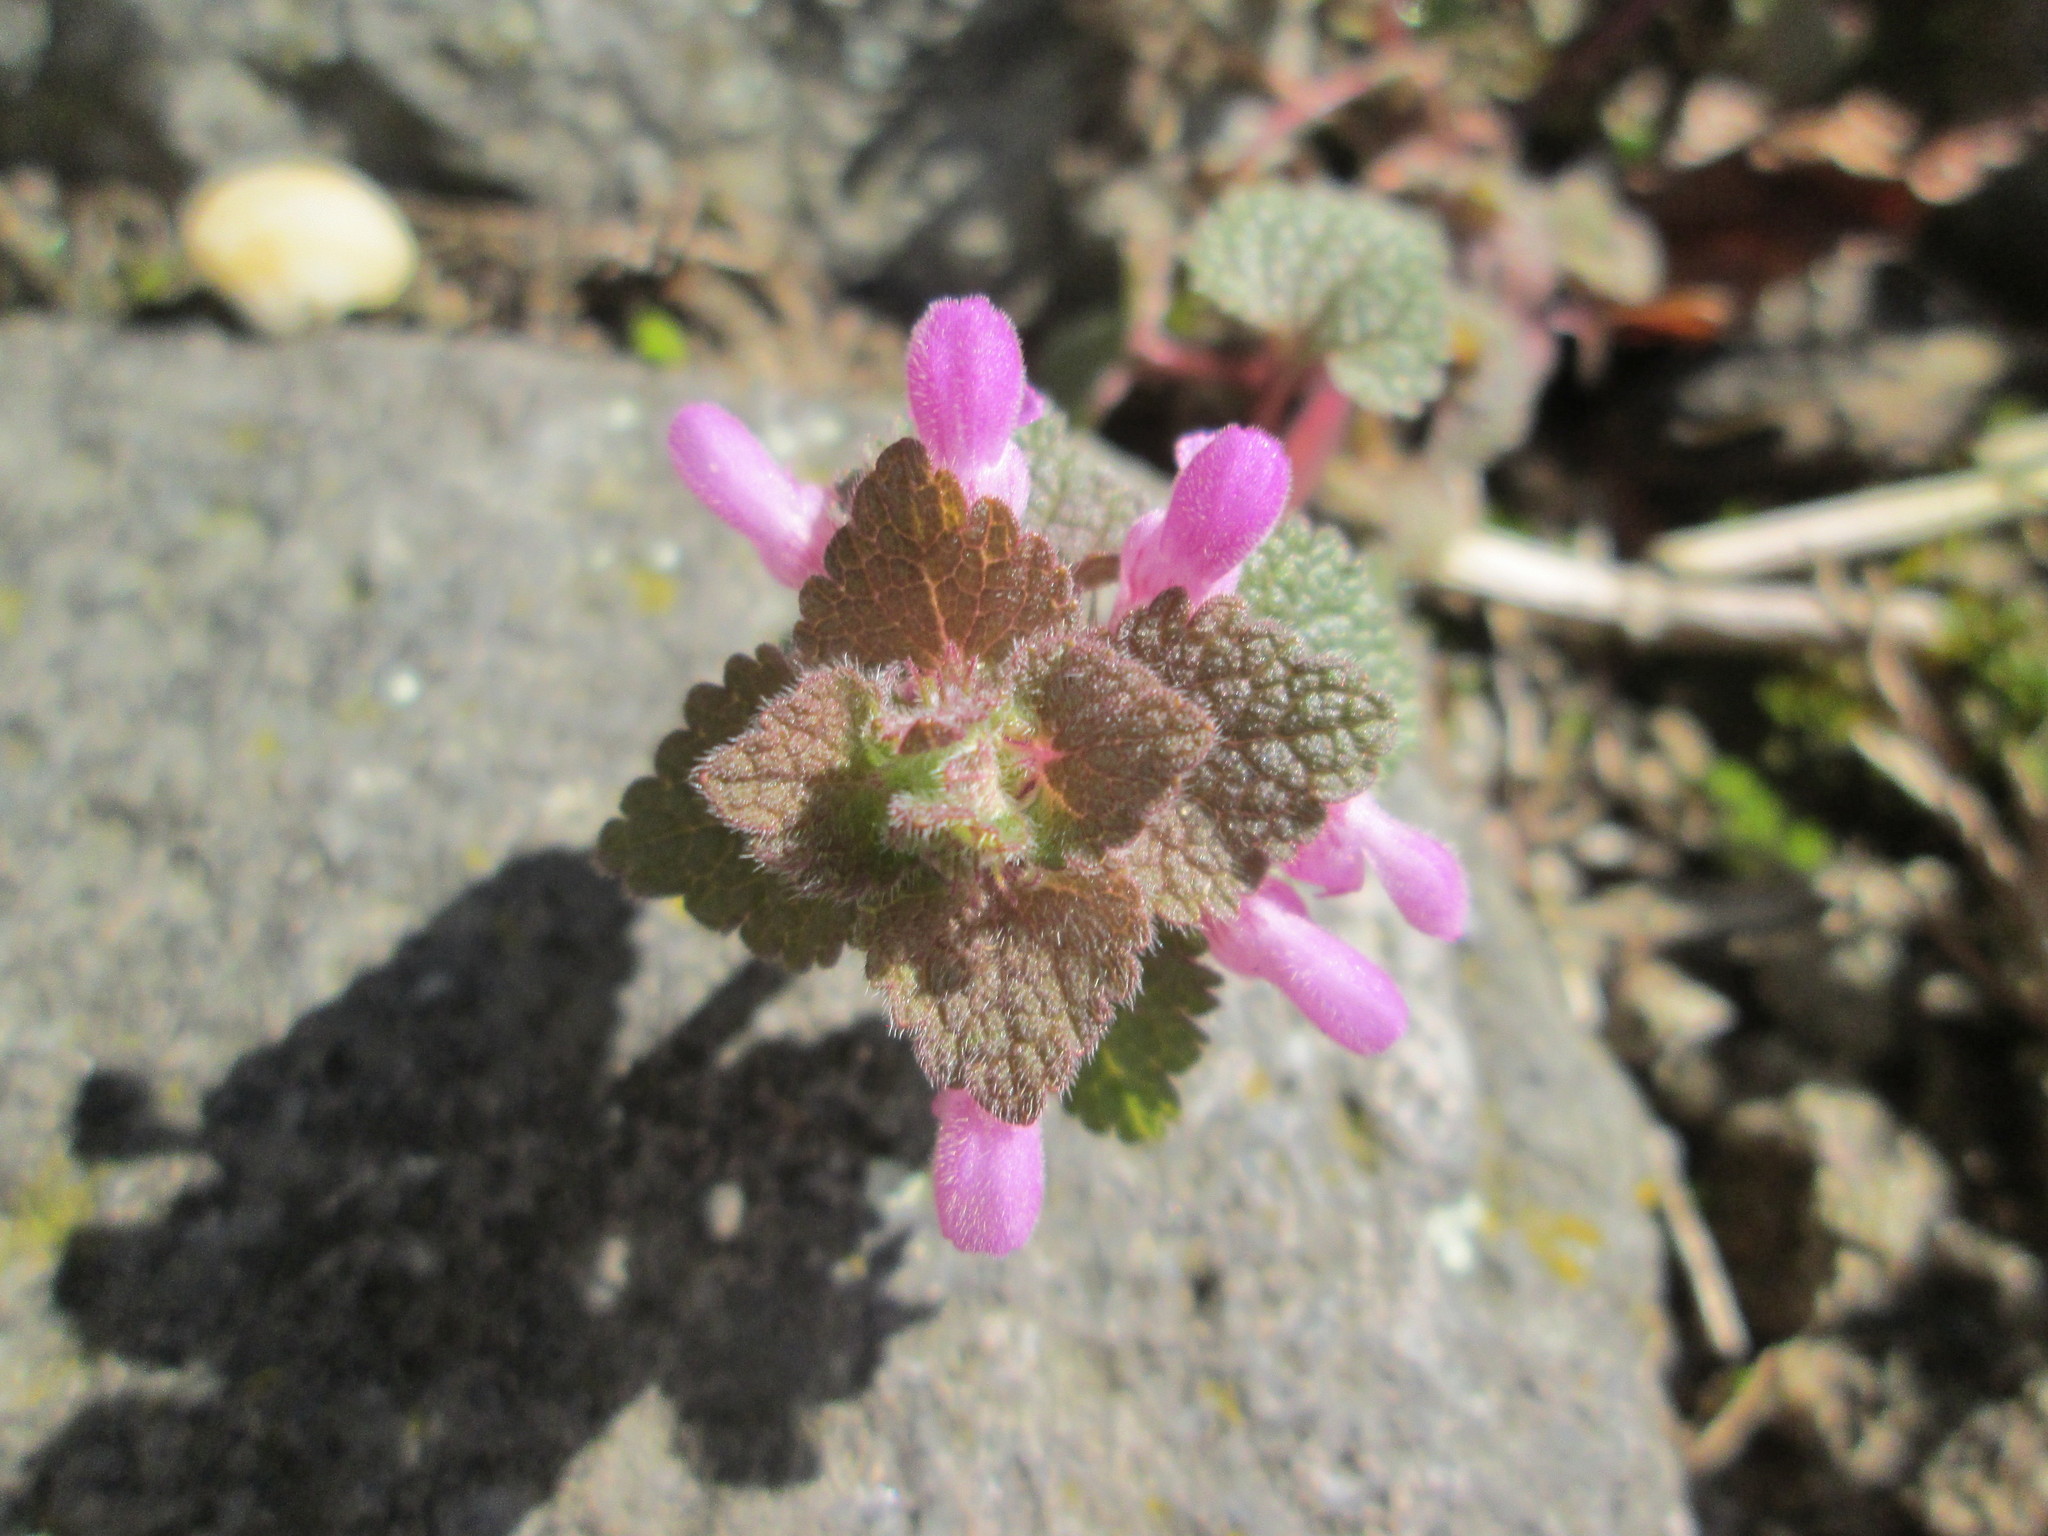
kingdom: Plantae
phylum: Tracheophyta
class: Magnoliopsida
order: Lamiales
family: Lamiaceae
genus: Lamium
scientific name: Lamium purpureum
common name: Red dead-nettle
